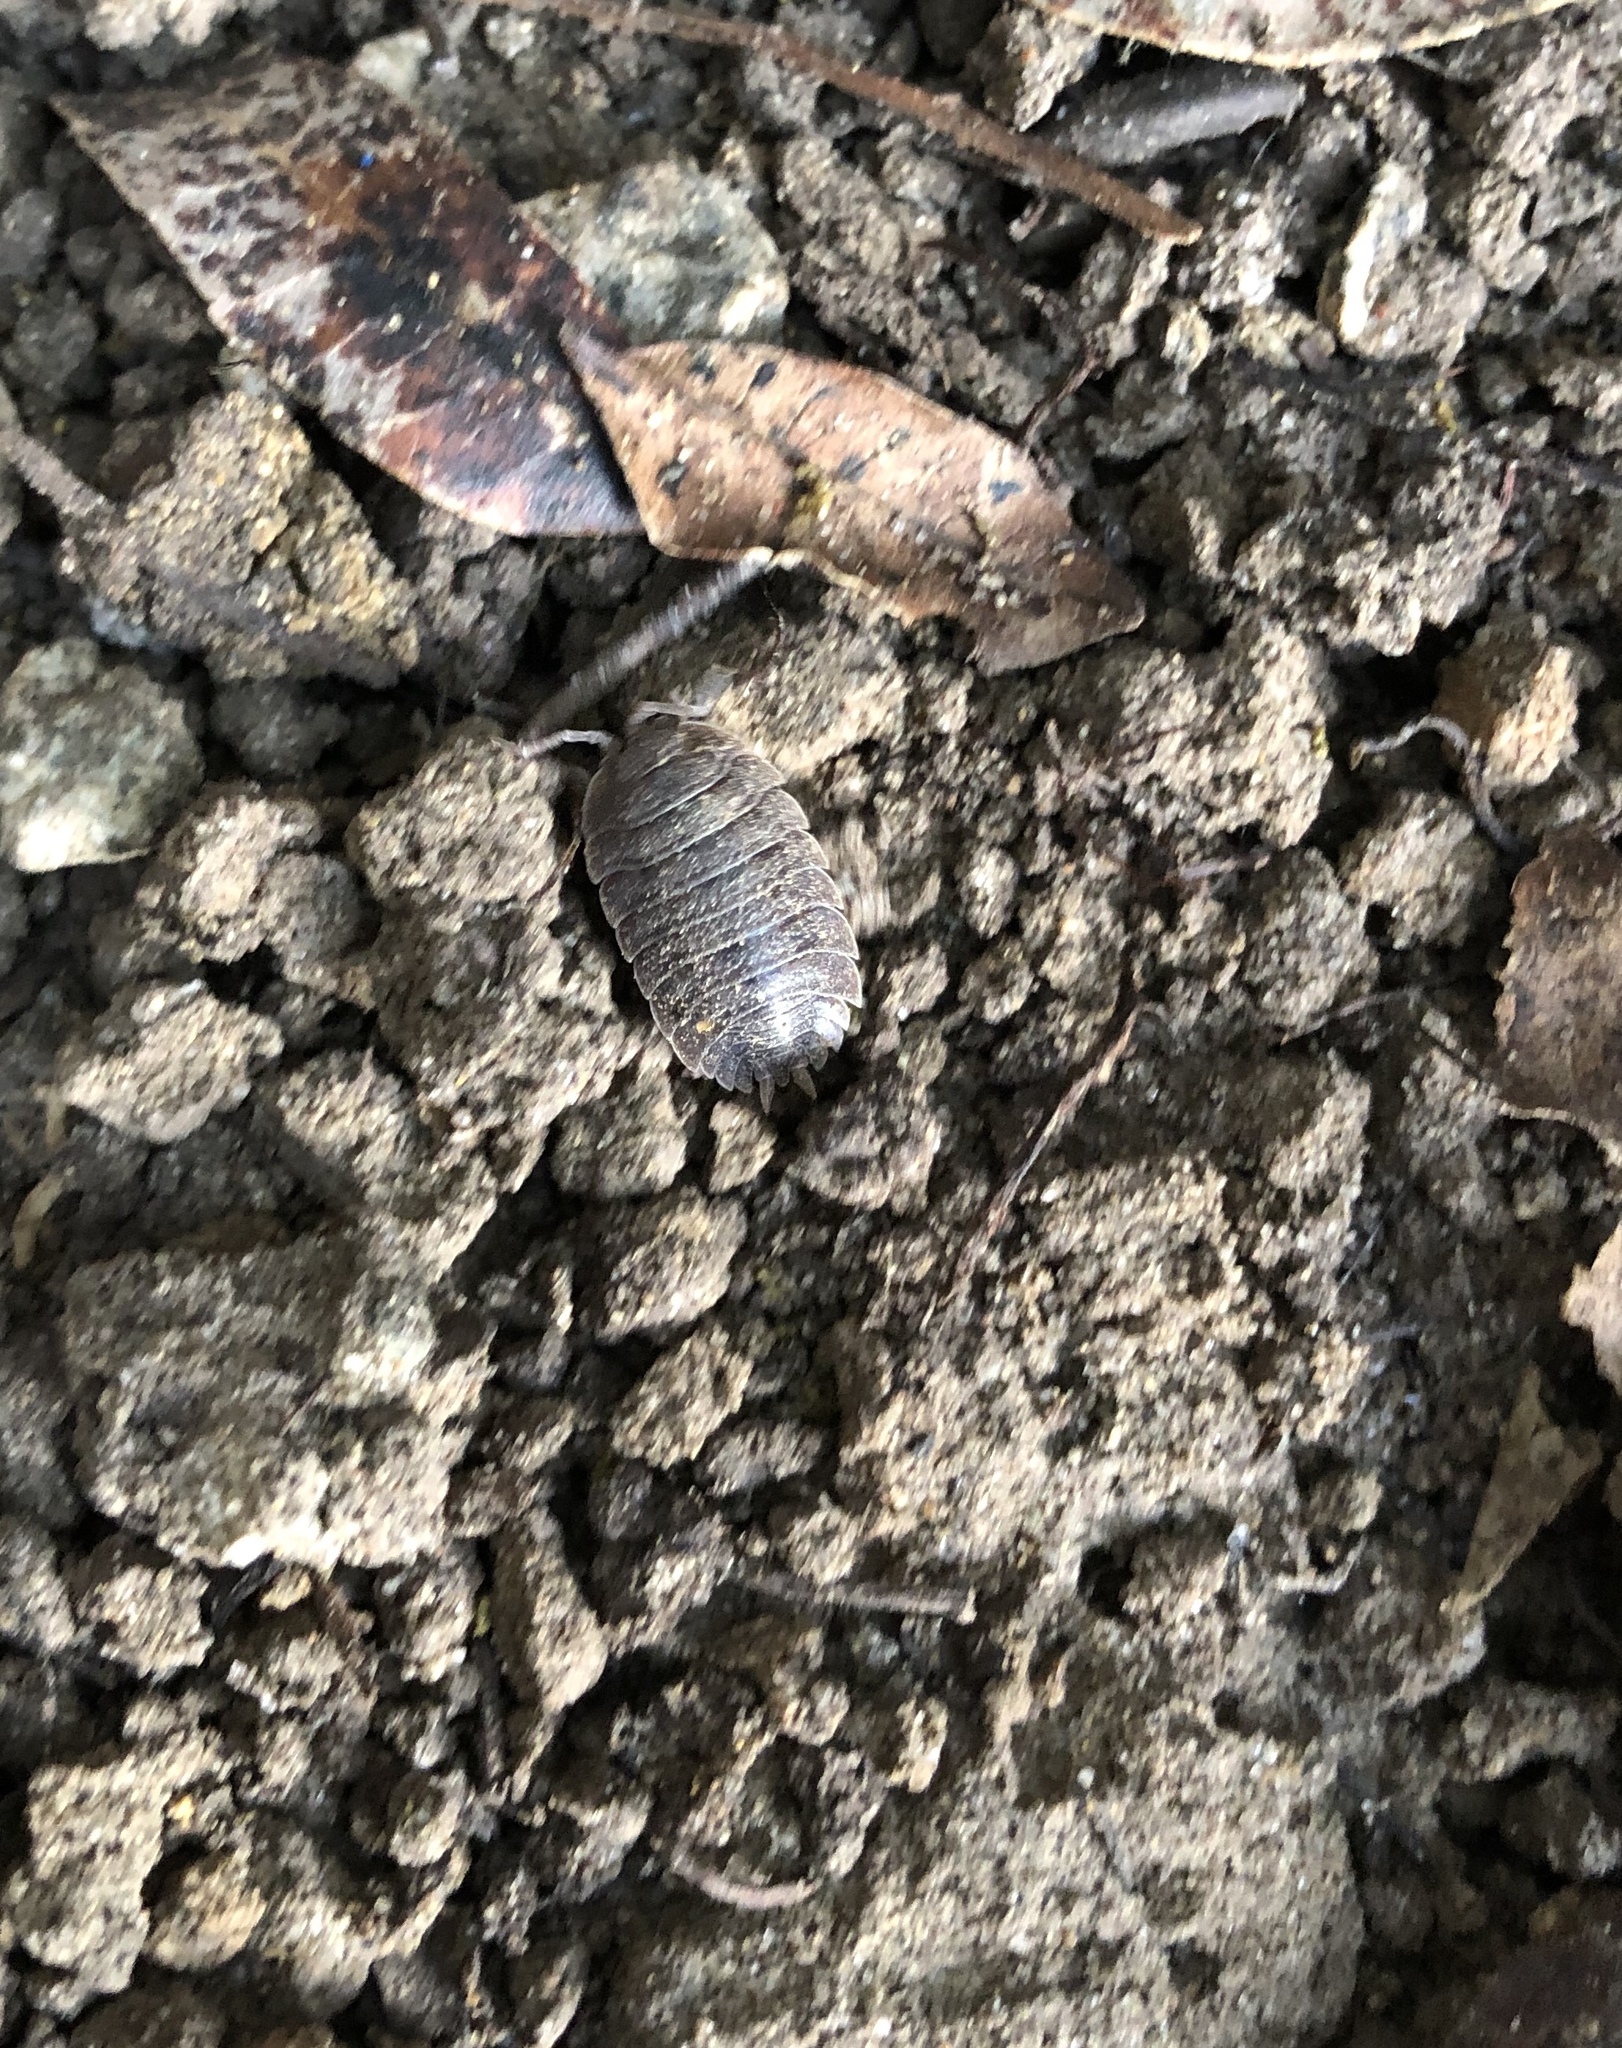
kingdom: Animalia
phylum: Arthropoda
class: Malacostraca
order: Isopoda
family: Porcellionidae
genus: Porcellio
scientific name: Porcellio dilatatus
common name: Isopod
